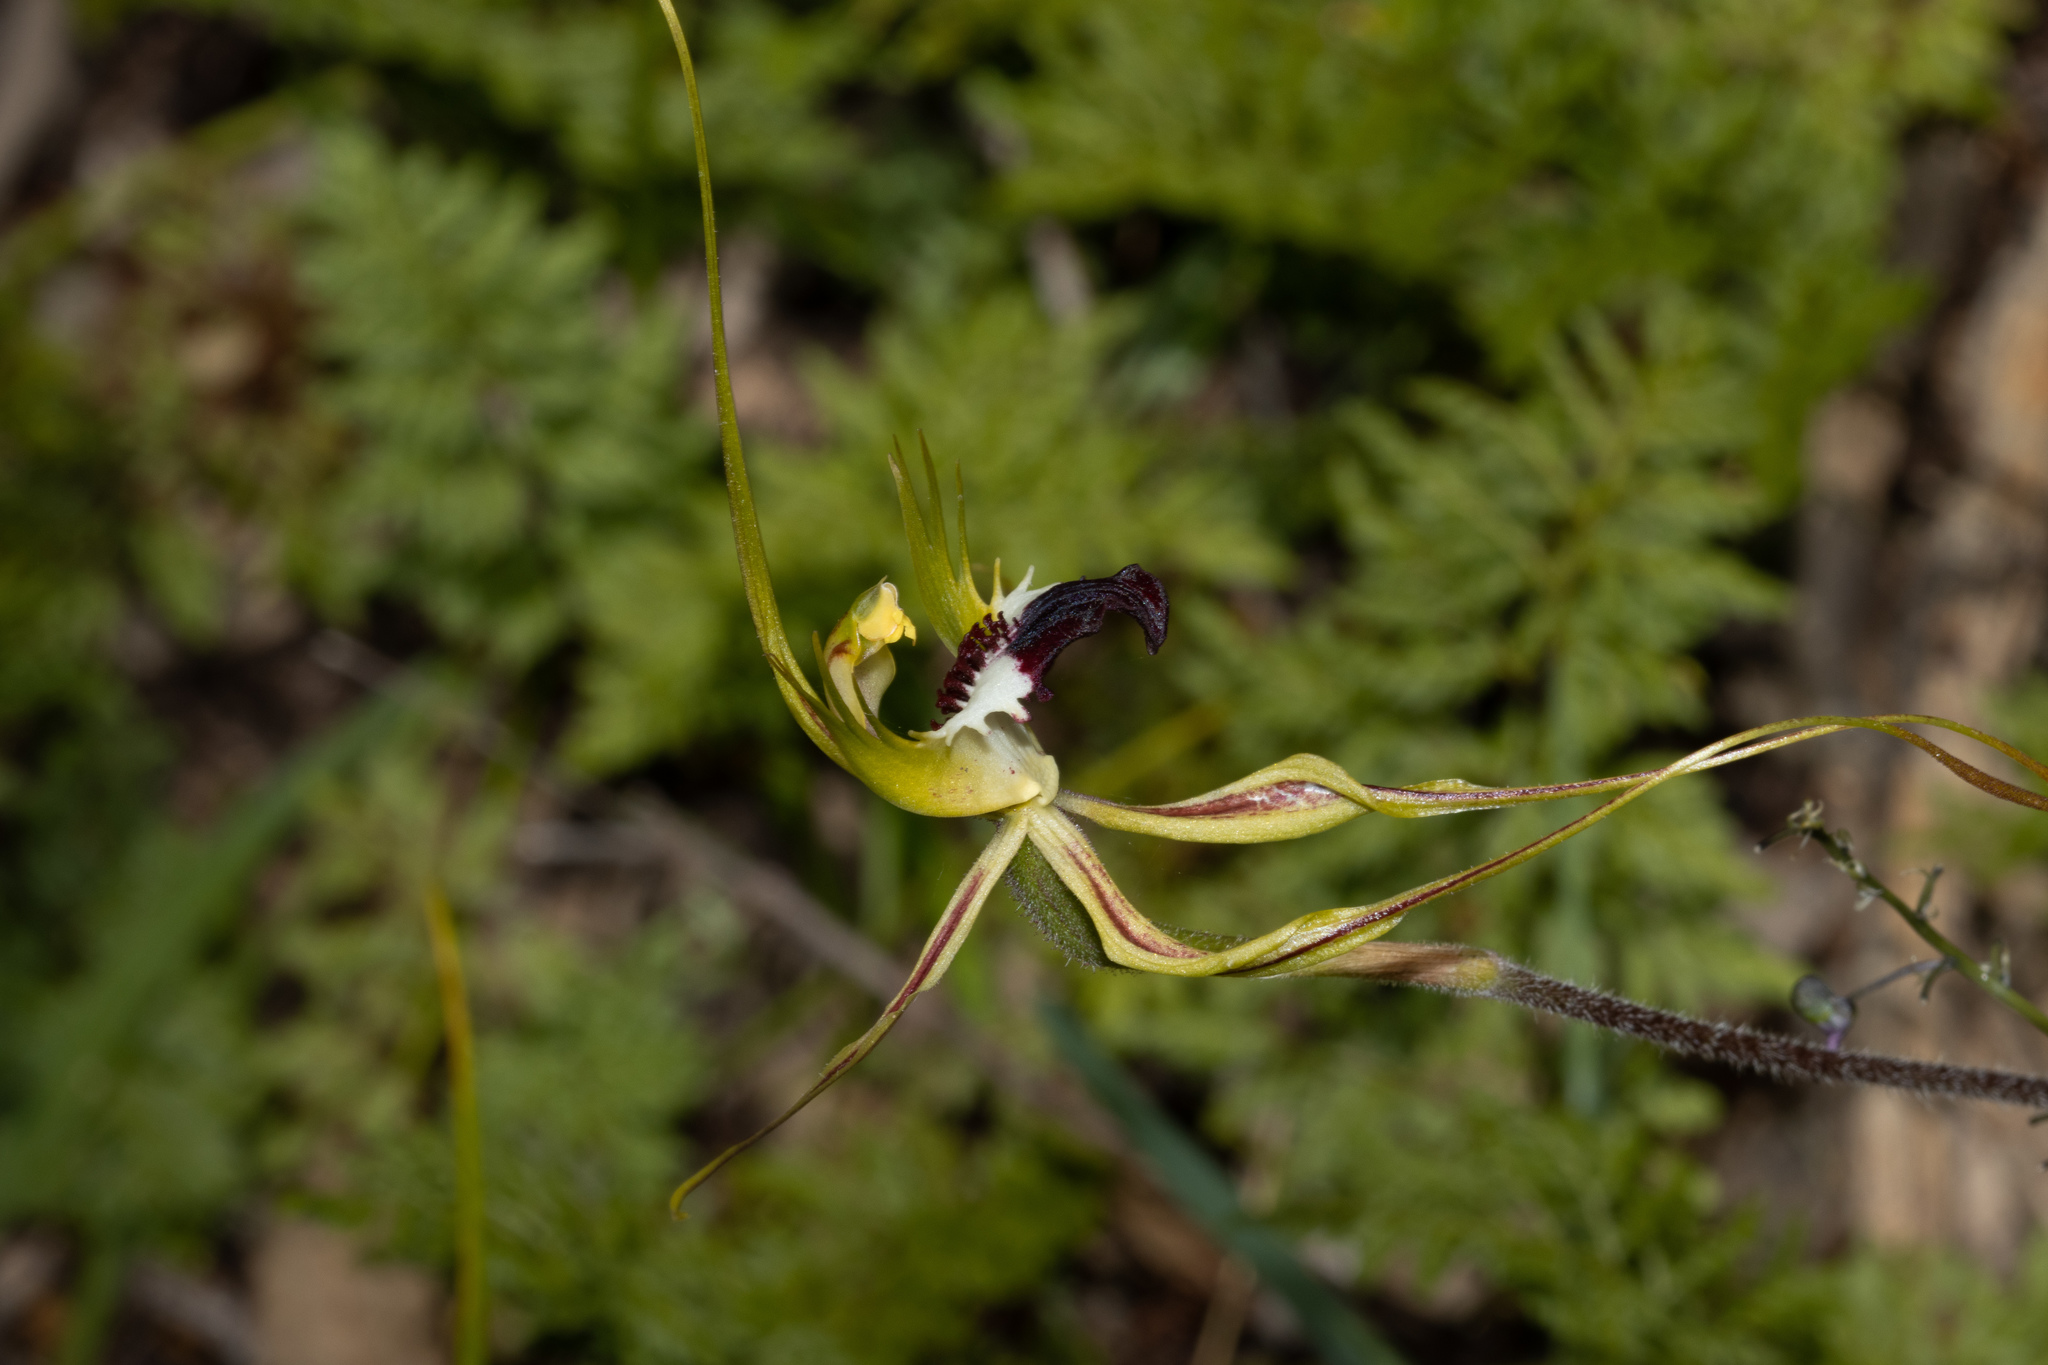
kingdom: Plantae
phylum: Tracheophyta
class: Liliopsida
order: Asparagales
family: Orchidaceae
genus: Caladenia
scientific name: Caladenia tentaculata
